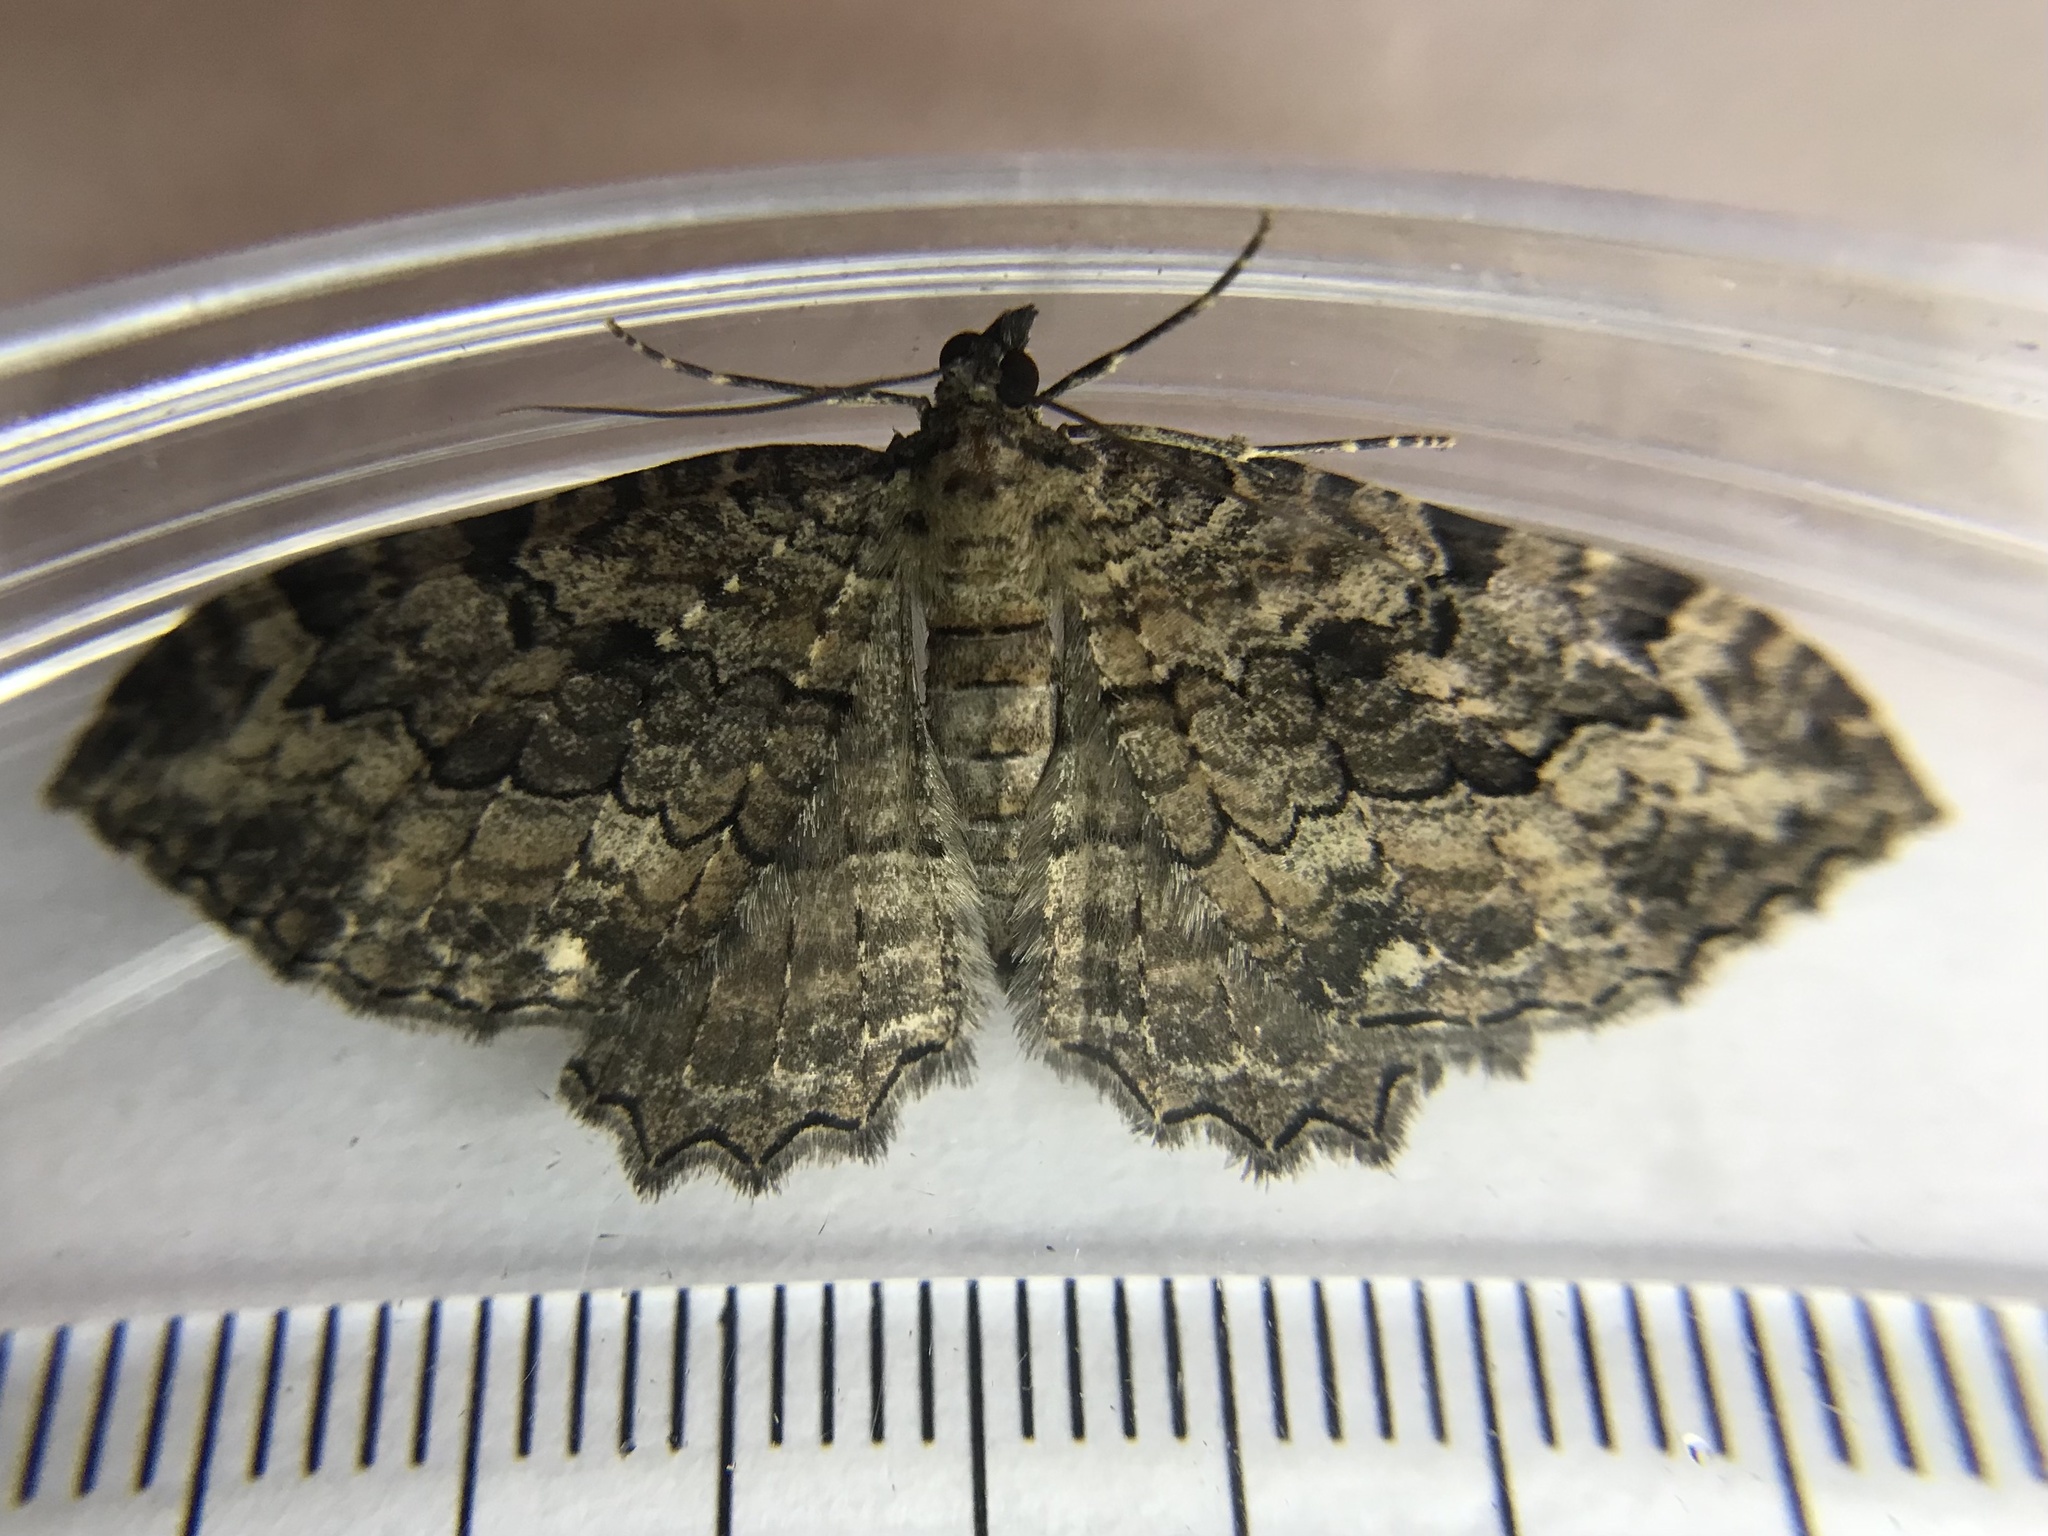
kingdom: Animalia
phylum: Arthropoda
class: Insecta
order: Lepidoptera
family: Geometridae
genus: Rheumaptera
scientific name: Rheumaptera
